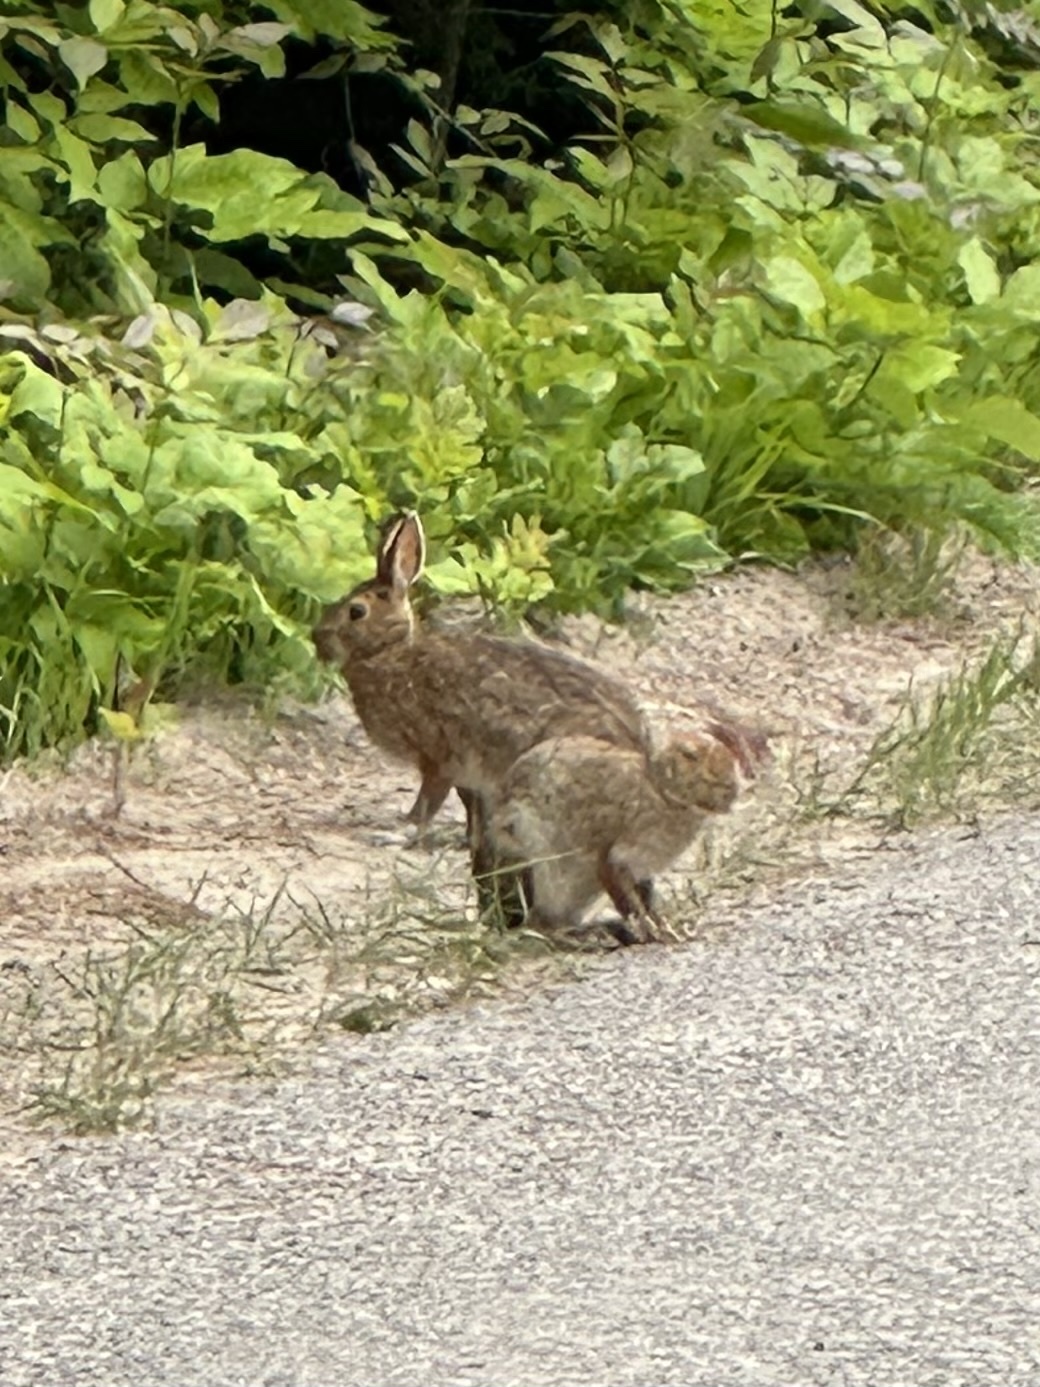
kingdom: Animalia
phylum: Chordata
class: Mammalia
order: Lagomorpha
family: Leporidae
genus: Lepus
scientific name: Lepus americanus
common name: Snowshoe hare
